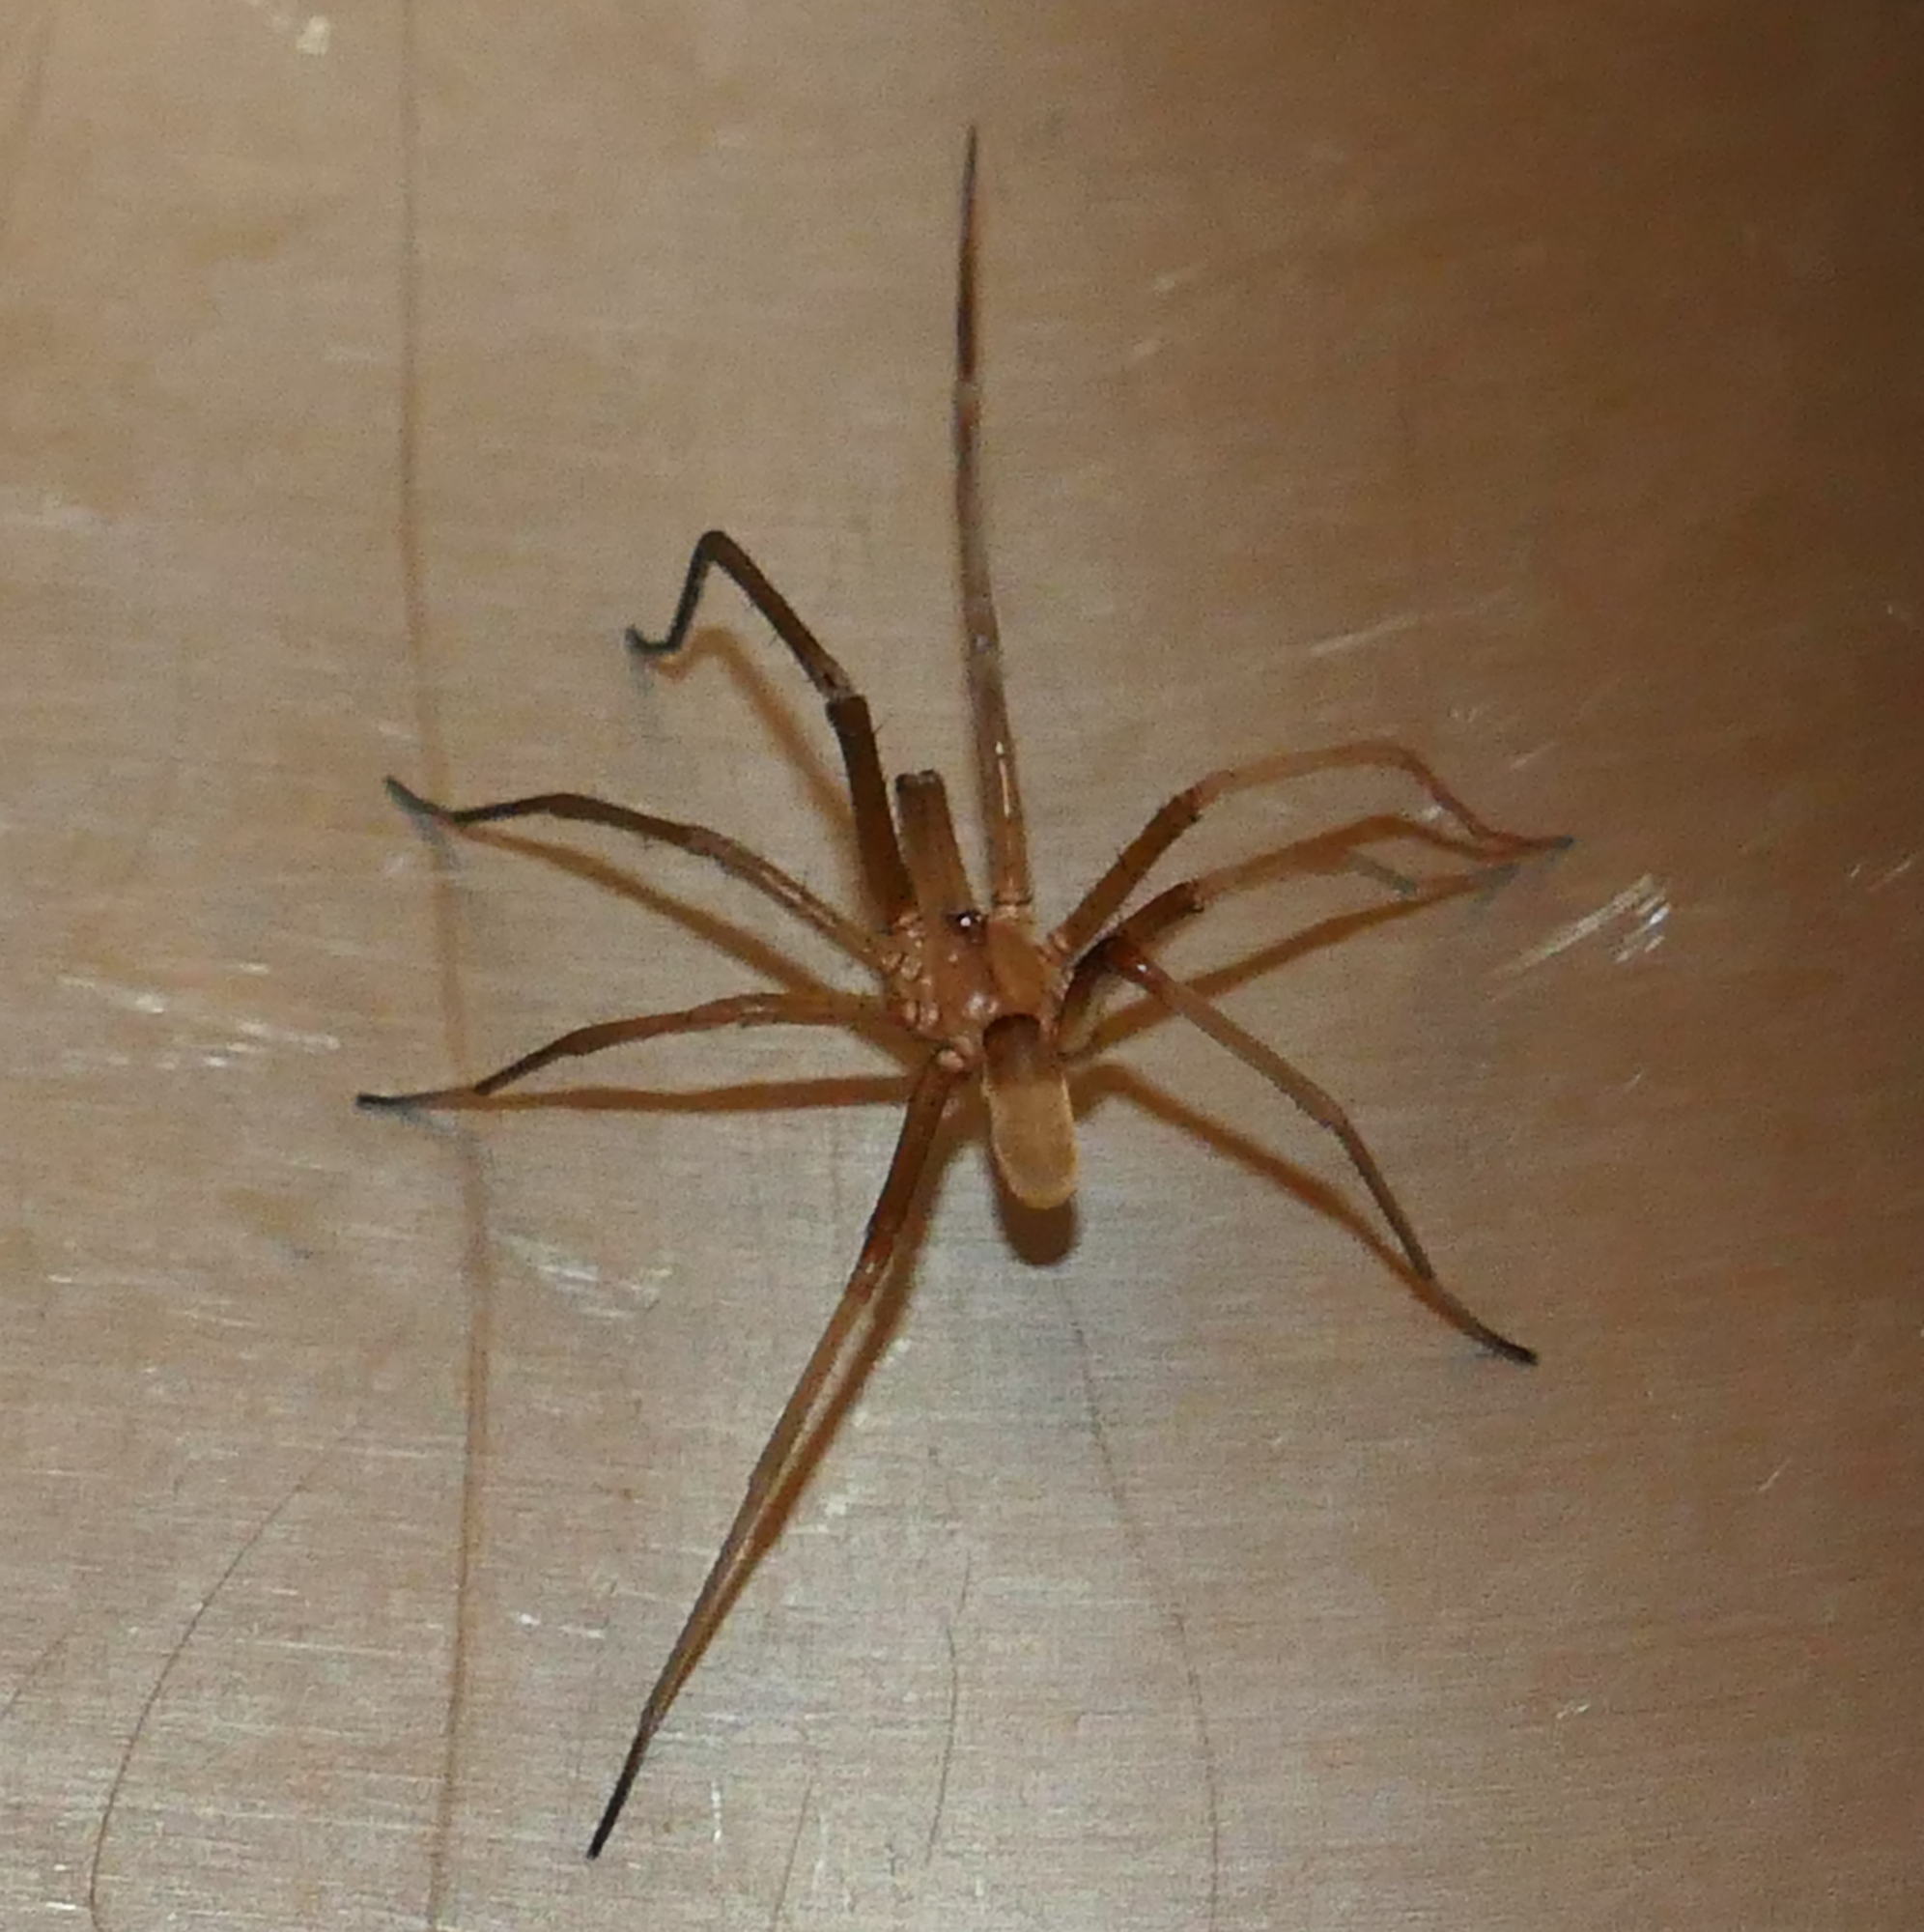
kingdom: Animalia
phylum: Arthropoda
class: Arachnida
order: Araneae
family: Filistatidae
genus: Kukulcania
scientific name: Kukulcania hibernalis
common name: Crevice weaver
